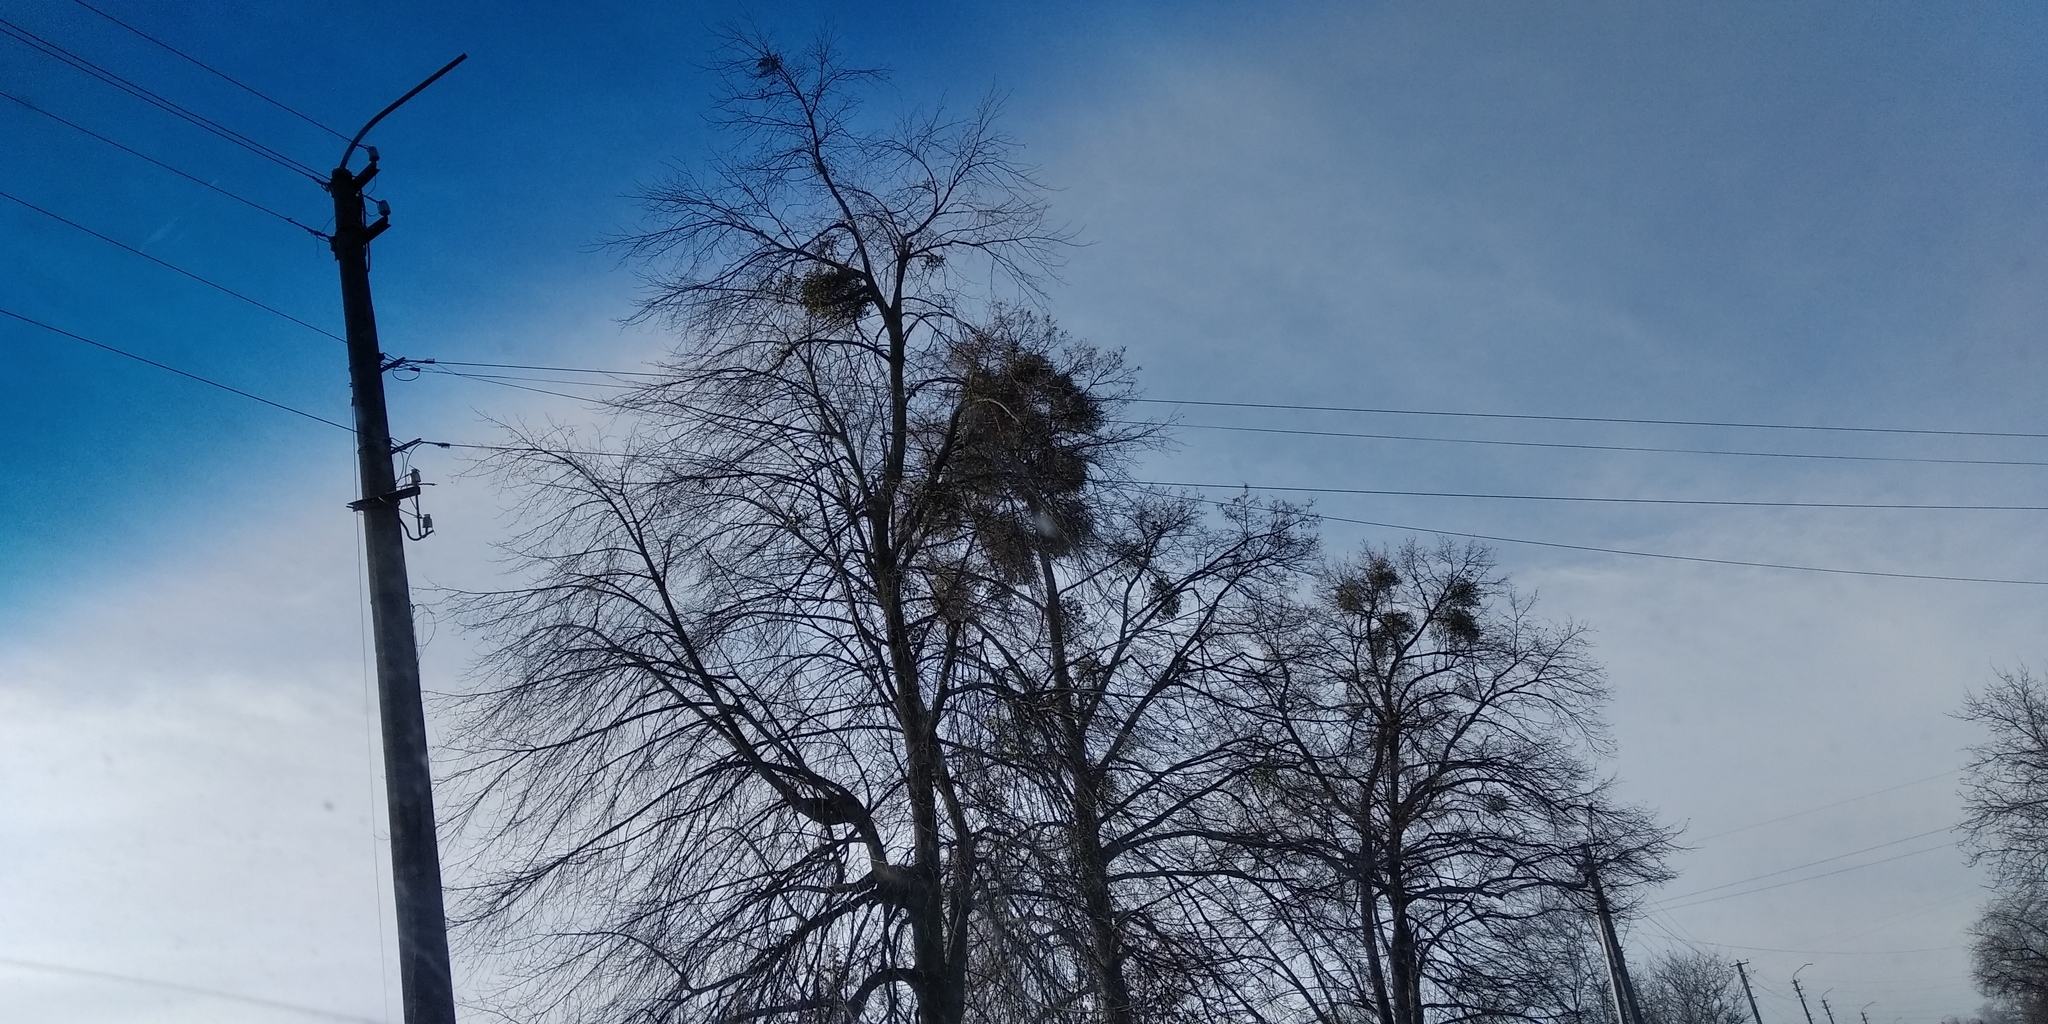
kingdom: Plantae
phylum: Tracheophyta
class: Magnoliopsida
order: Santalales
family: Viscaceae
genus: Viscum
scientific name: Viscum album
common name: Mistletoe
